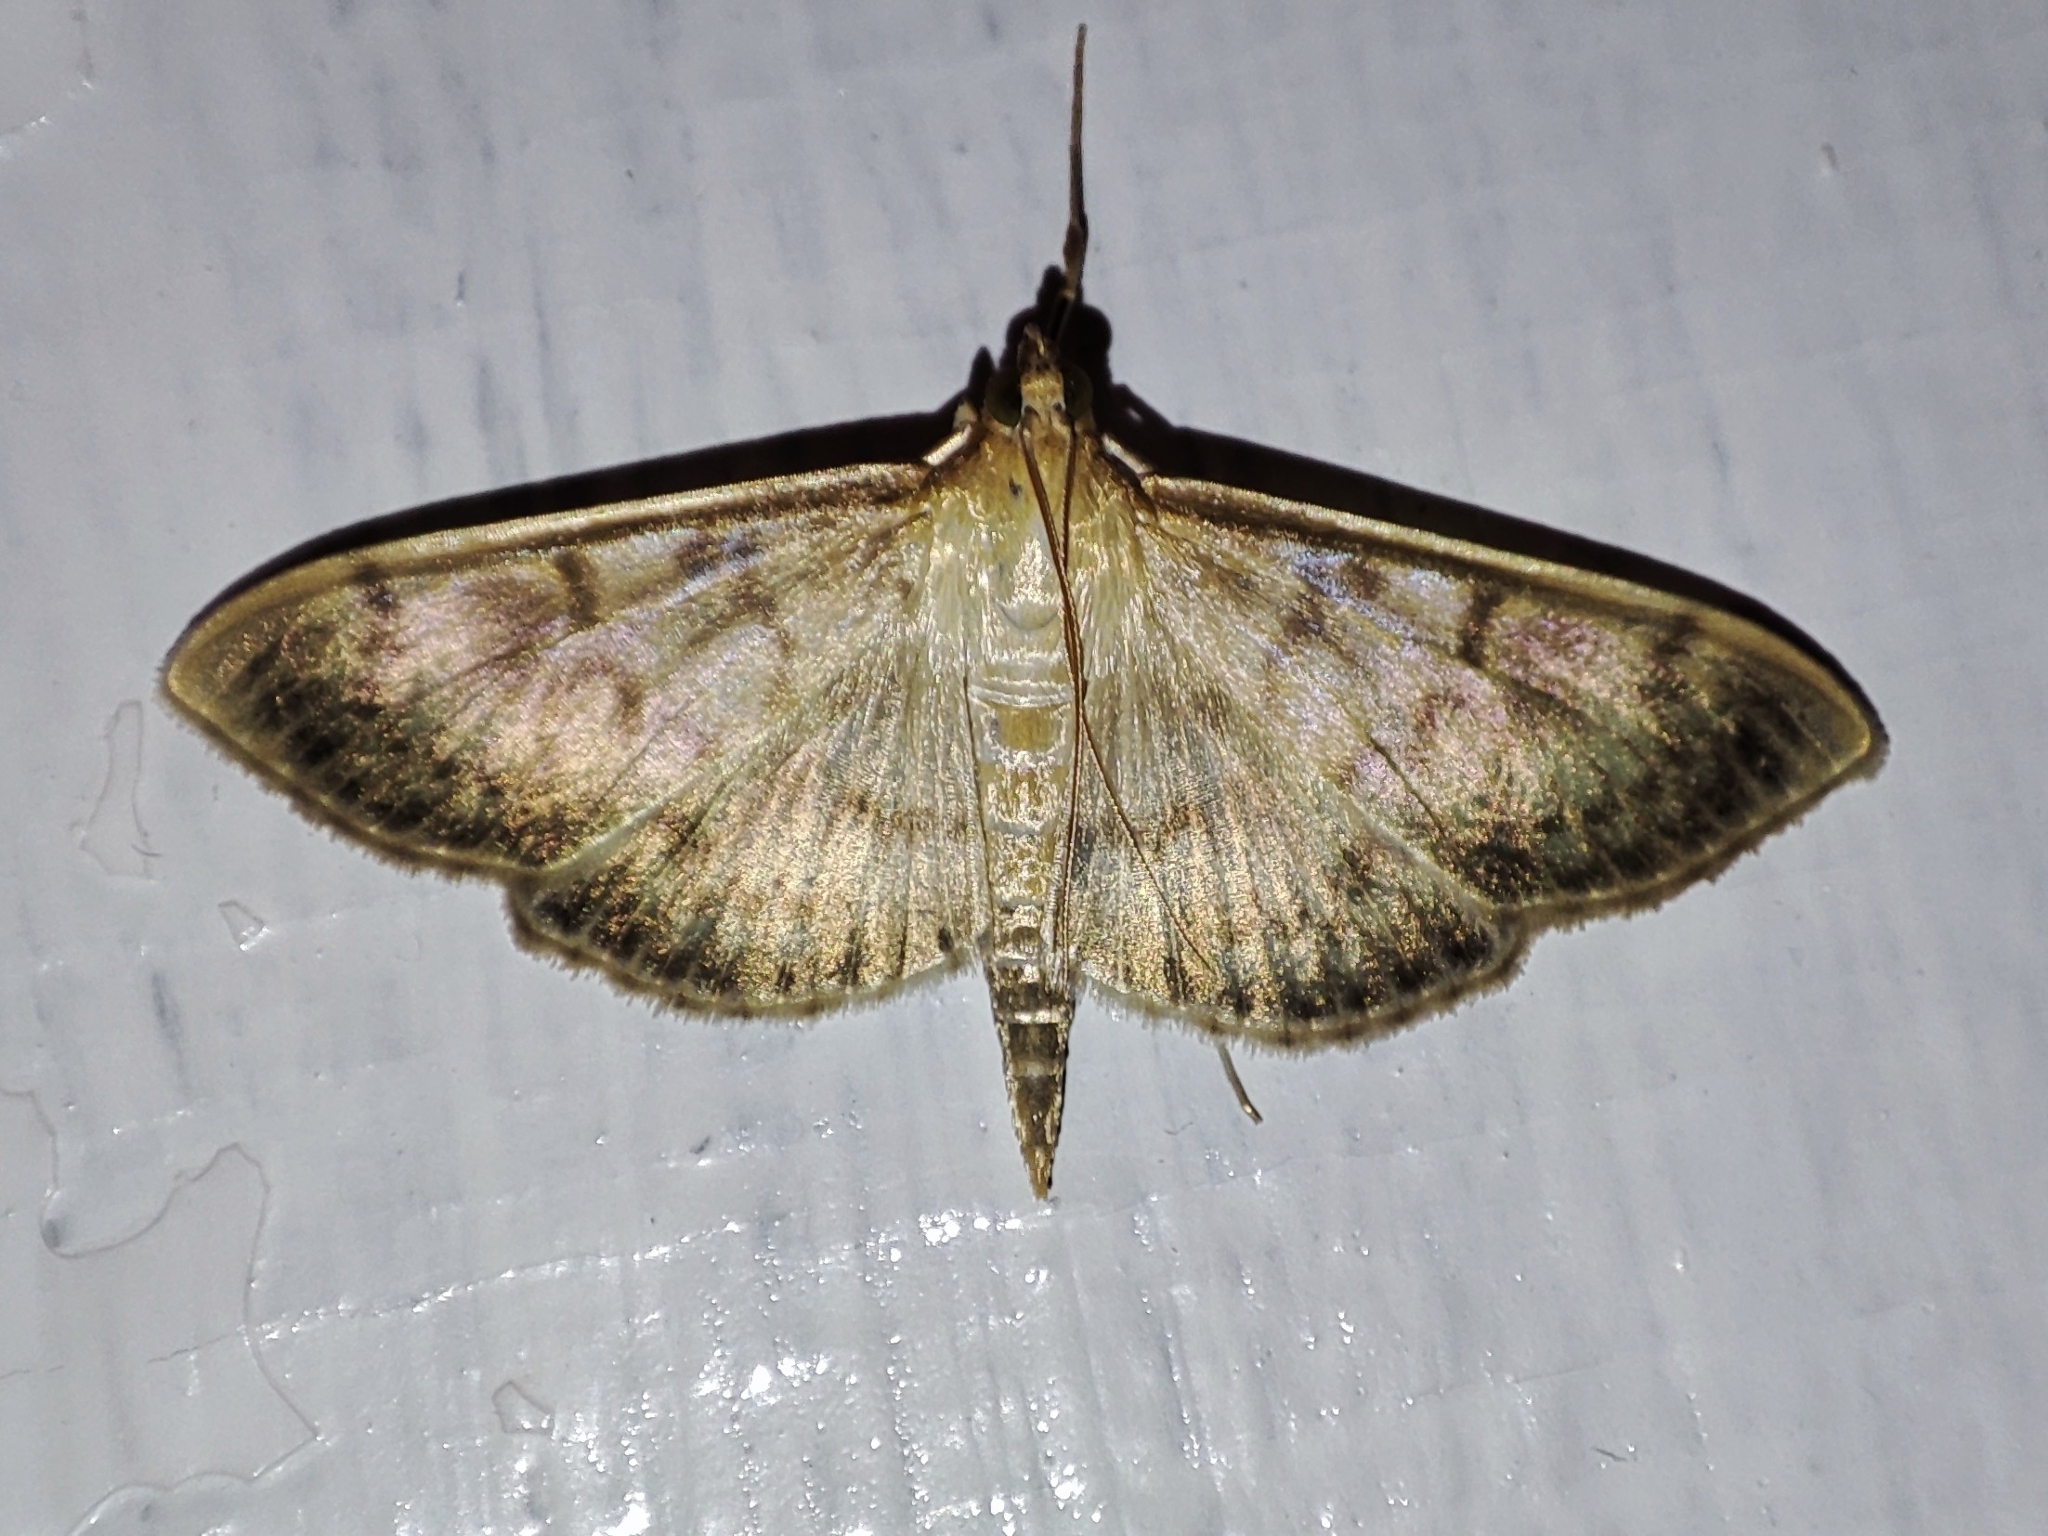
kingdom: Animalia
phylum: Arthropoda
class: Insecta
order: Lepidoptera
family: Crambidae
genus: Patania
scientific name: Patania ruralis
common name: Mother of pearl
